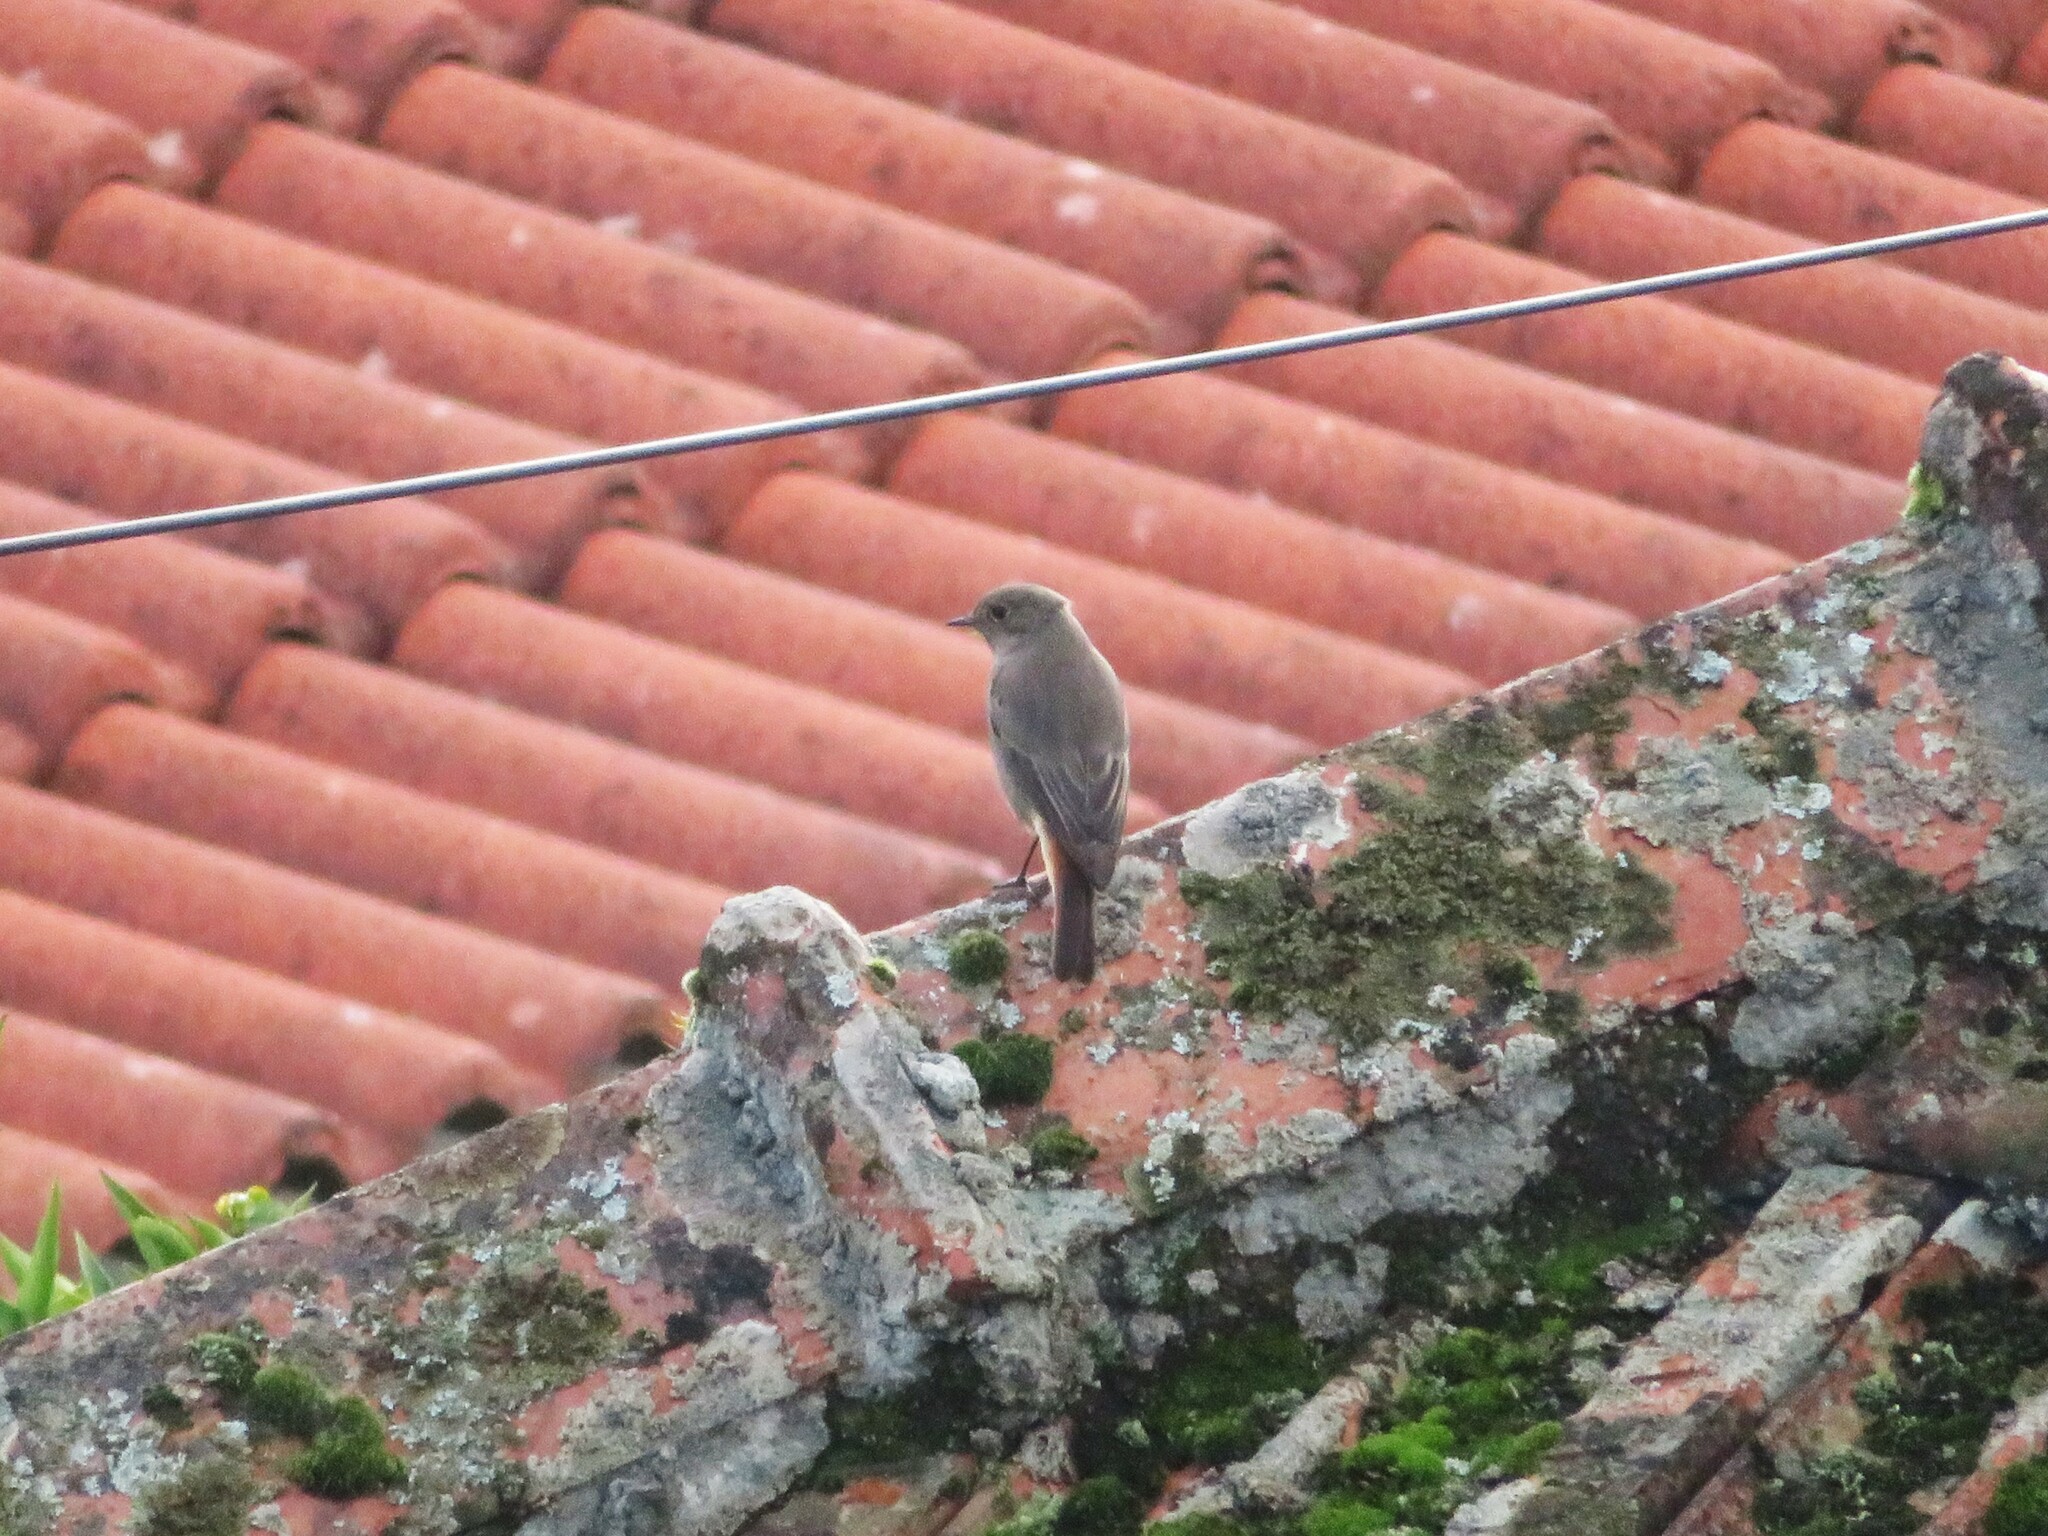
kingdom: Animalia
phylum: Chordata
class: Aves
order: Passeriformes
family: Muscicapidae
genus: Phoenicurus
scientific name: Phoenicurus ochruros
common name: Black redstart
